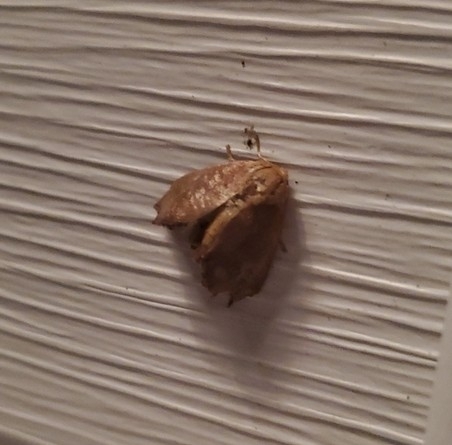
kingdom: Animalia
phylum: Arthropoda
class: Insecta
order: Lepidoptera
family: Limacodidae
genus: Isa
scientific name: Isa textula
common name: Crowned slug moth
